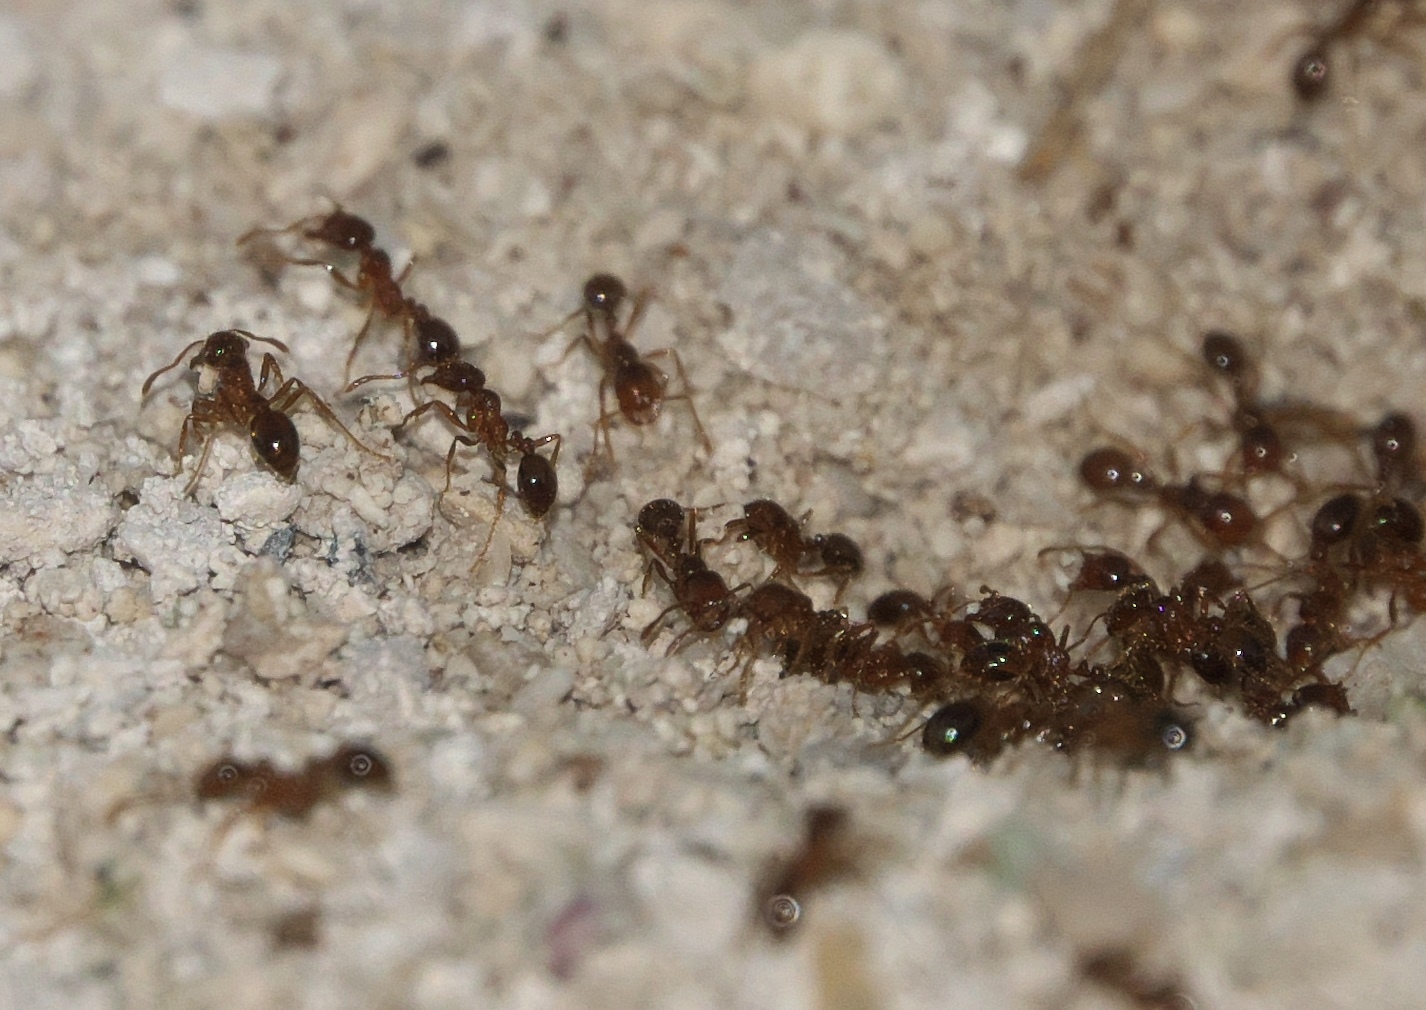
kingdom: Animalia
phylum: Arthropoda
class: Insecta
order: Hymenoptera
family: Formicidae
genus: Solenopsis
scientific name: Solenopsis invicta
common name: Red imported fire ant
